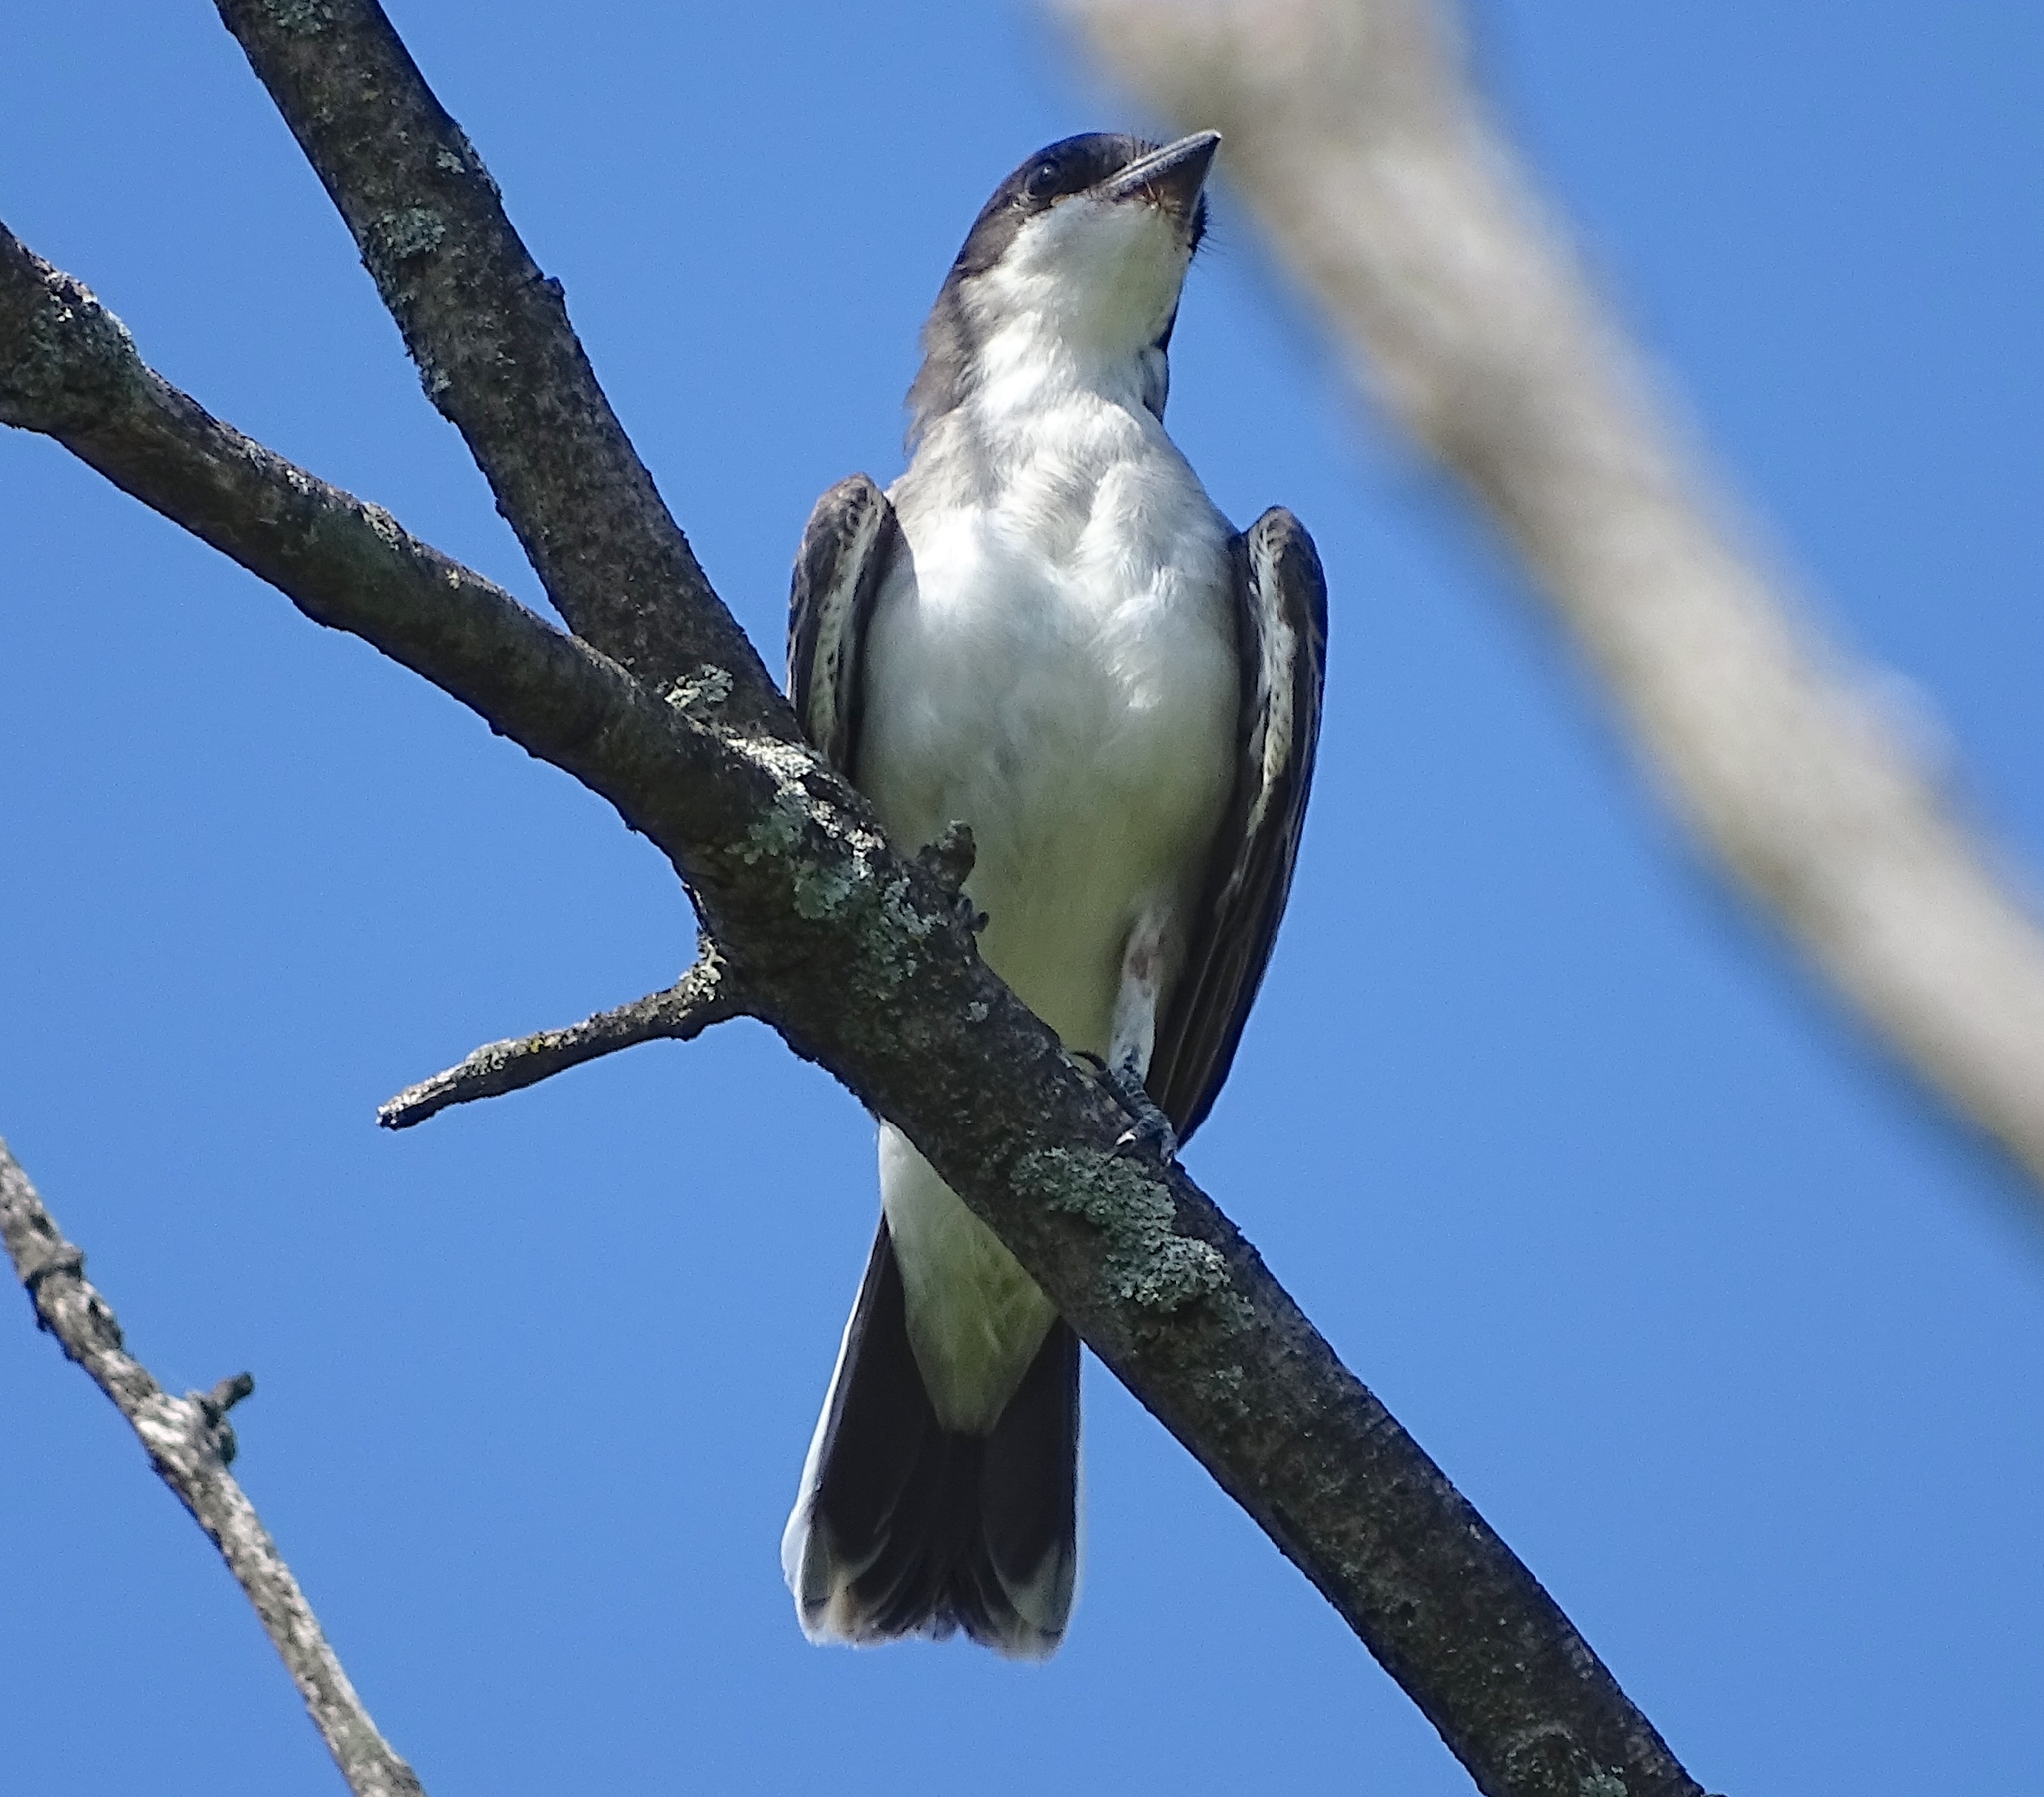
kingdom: Animalia
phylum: Chordata
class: Aves
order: Passeriformes
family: Tyrannidae
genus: Tyrannus
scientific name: Tyrannus tyrannus
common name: Eastern kingbird
